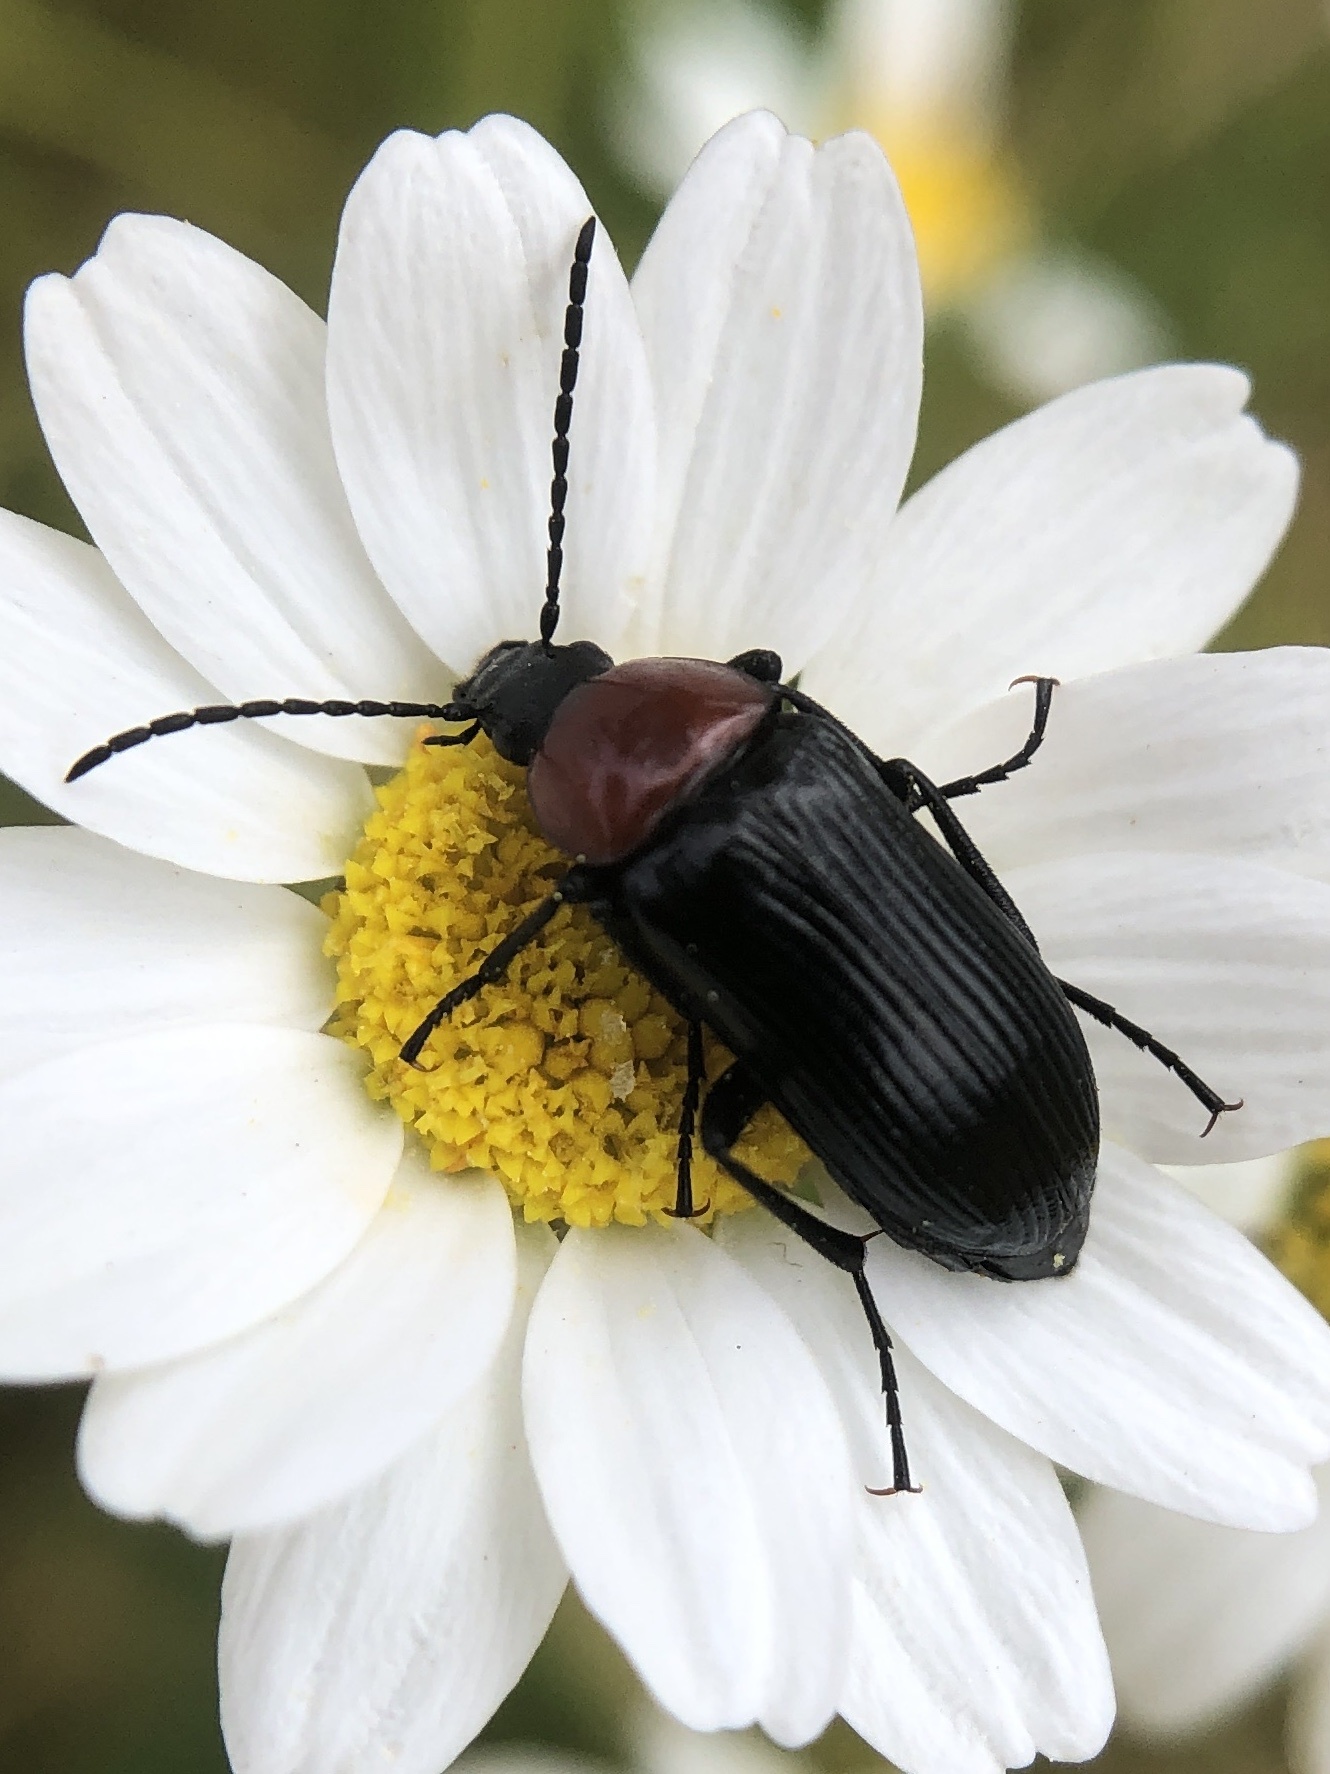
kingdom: Animalia
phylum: Arthropoda
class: Insecta
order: Coleoptera
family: Tenebrionidae
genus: Heliotaurus
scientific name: Heliotaurus ruficollis
